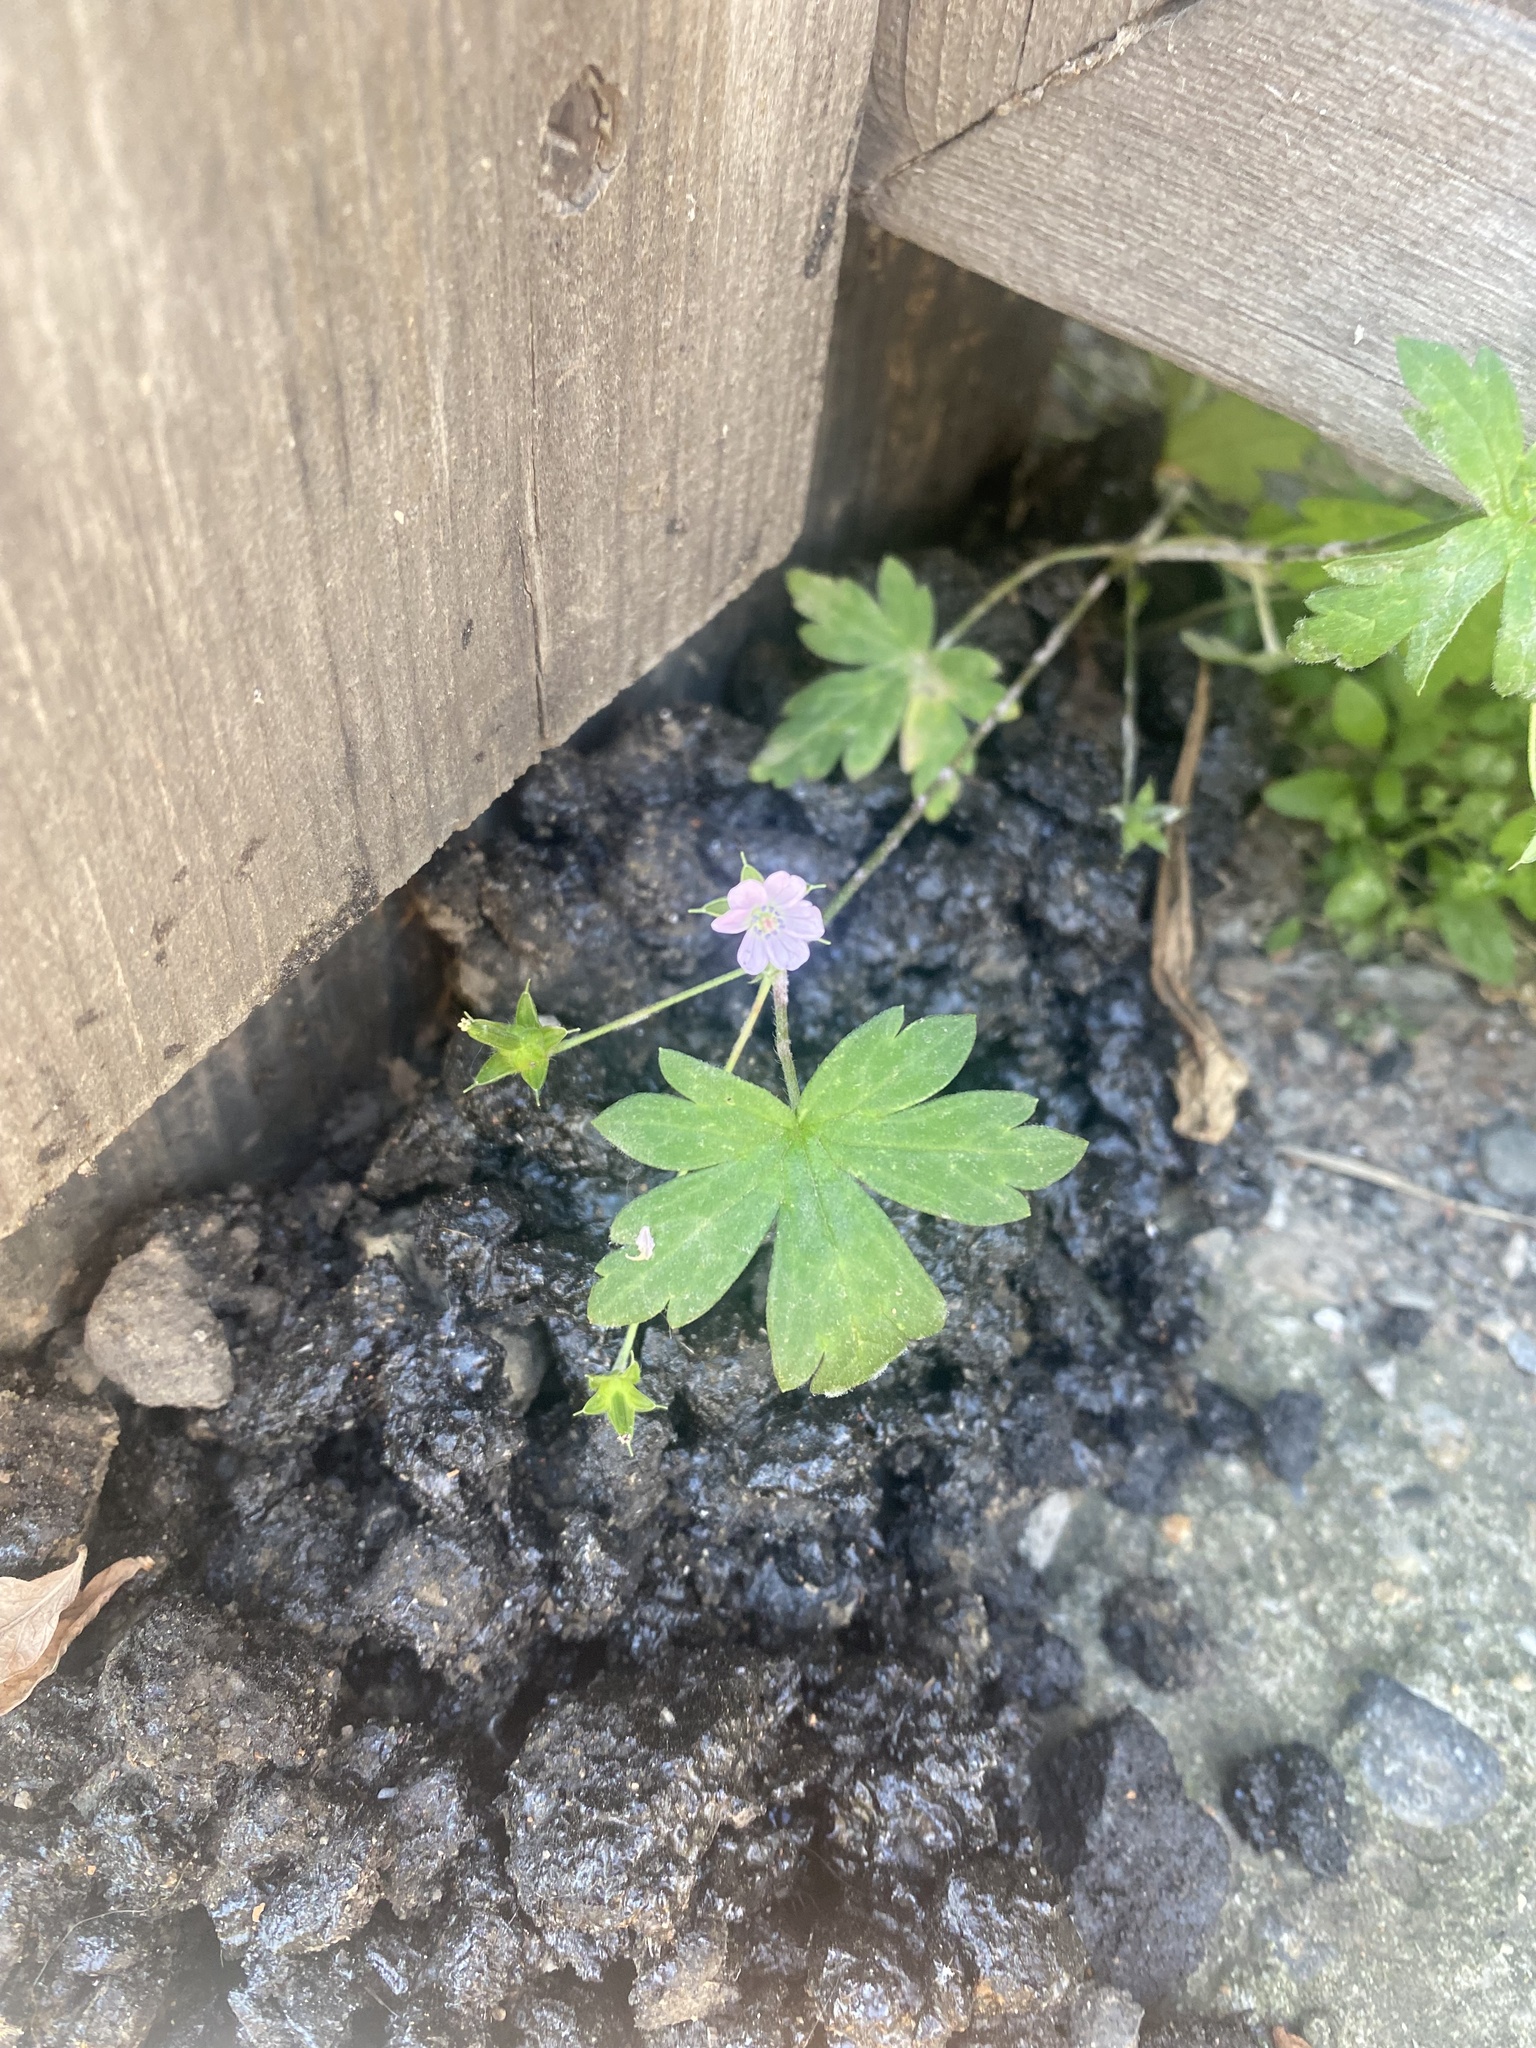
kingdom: Plantae
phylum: Tracheophyta
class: Magnoliopsida
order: Geraniales
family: Geraniaceae
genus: Geranium
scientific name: Geranium sibiricum
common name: Siberian crane's-bill
